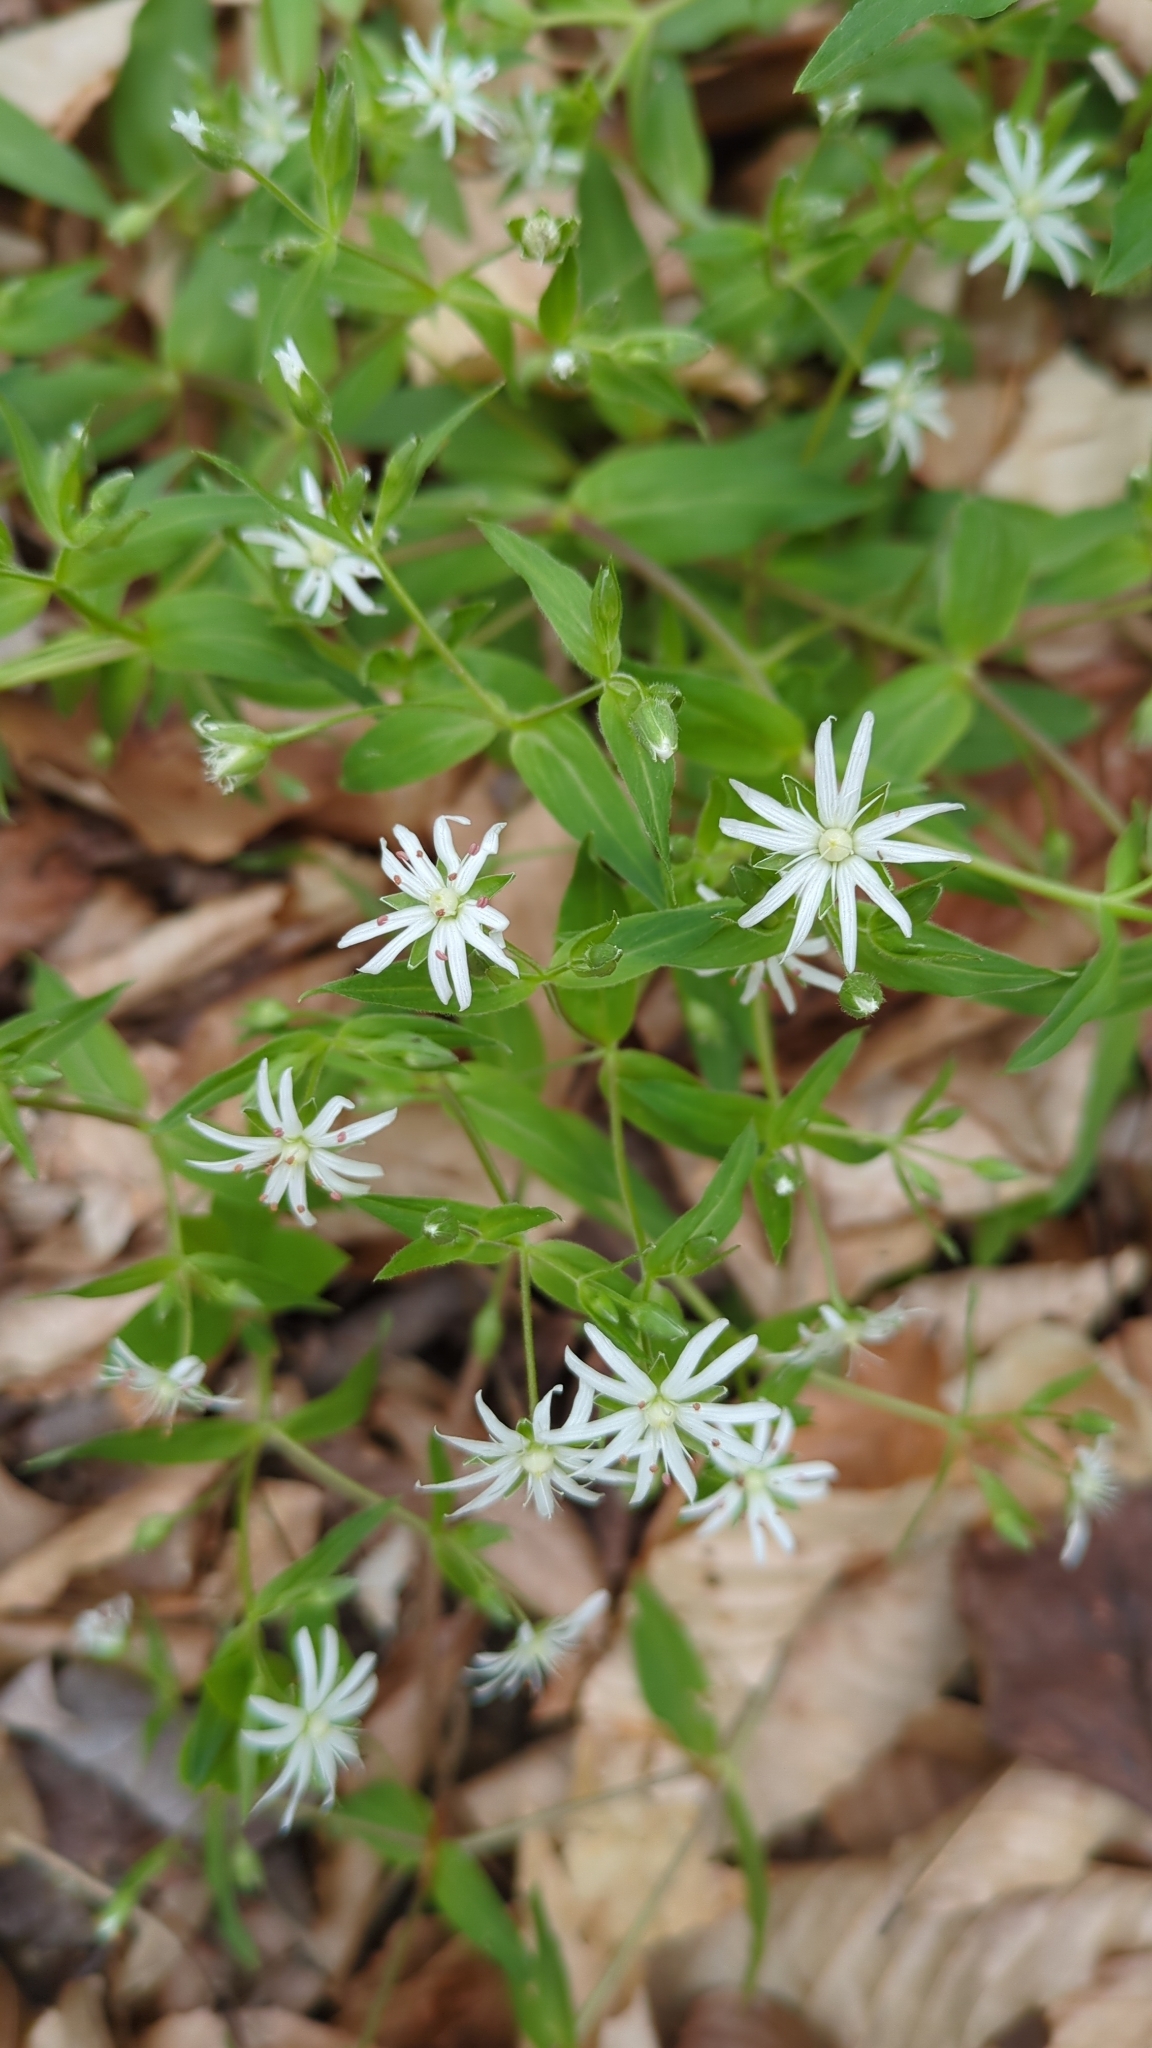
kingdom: Plantae
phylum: Tracheophyta
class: Magnoliopsida
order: Caryophyllales
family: Caryophyllaceae
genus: Stellaria
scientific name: Stellaria pubera
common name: Star chickweed
